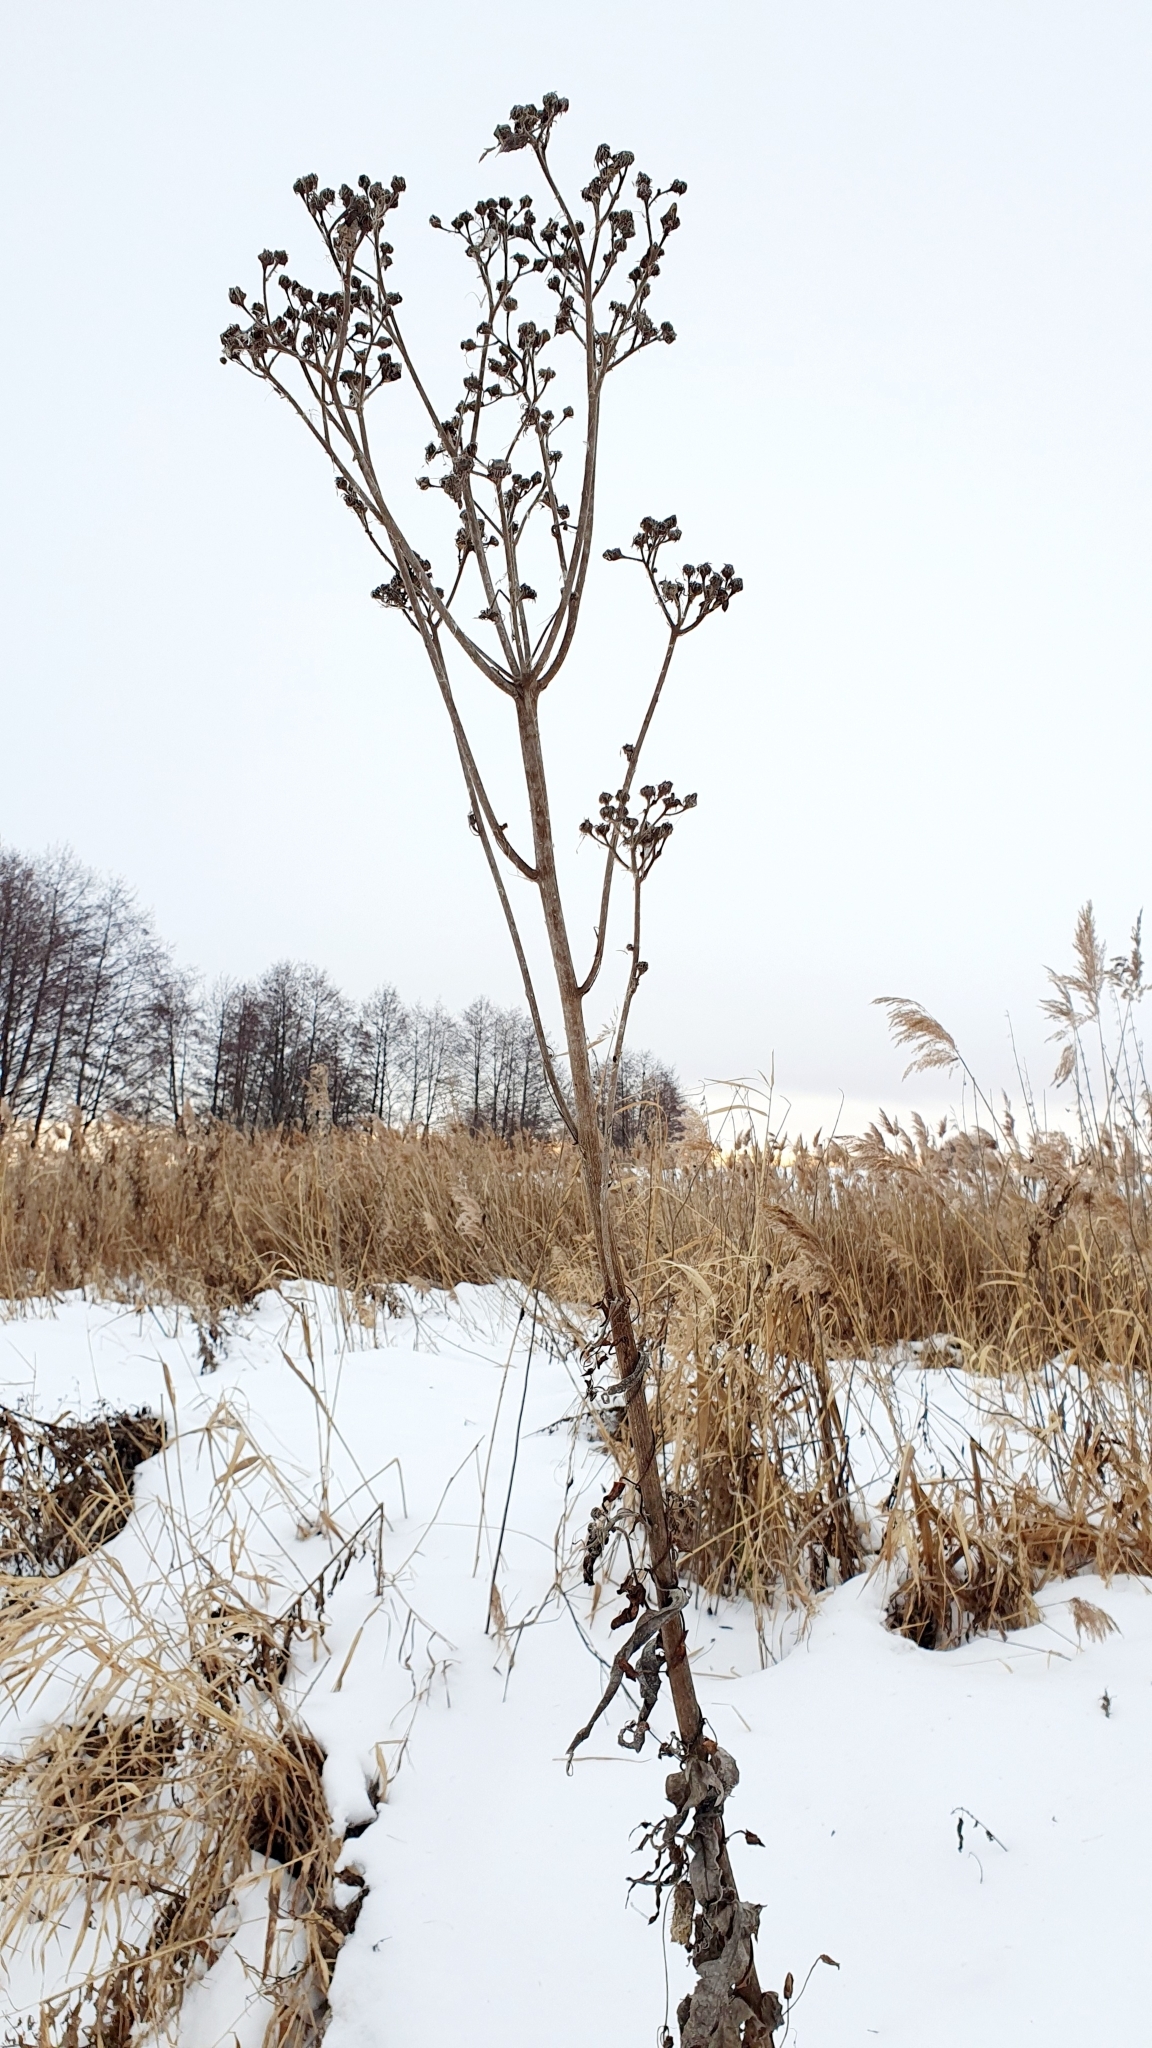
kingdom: Plantae
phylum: Tracheophyta
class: Magnoliopsida
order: Asterales
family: Asteraceae
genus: Sonchus
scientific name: Sonchus palustris
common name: Marsh sow-thistle
